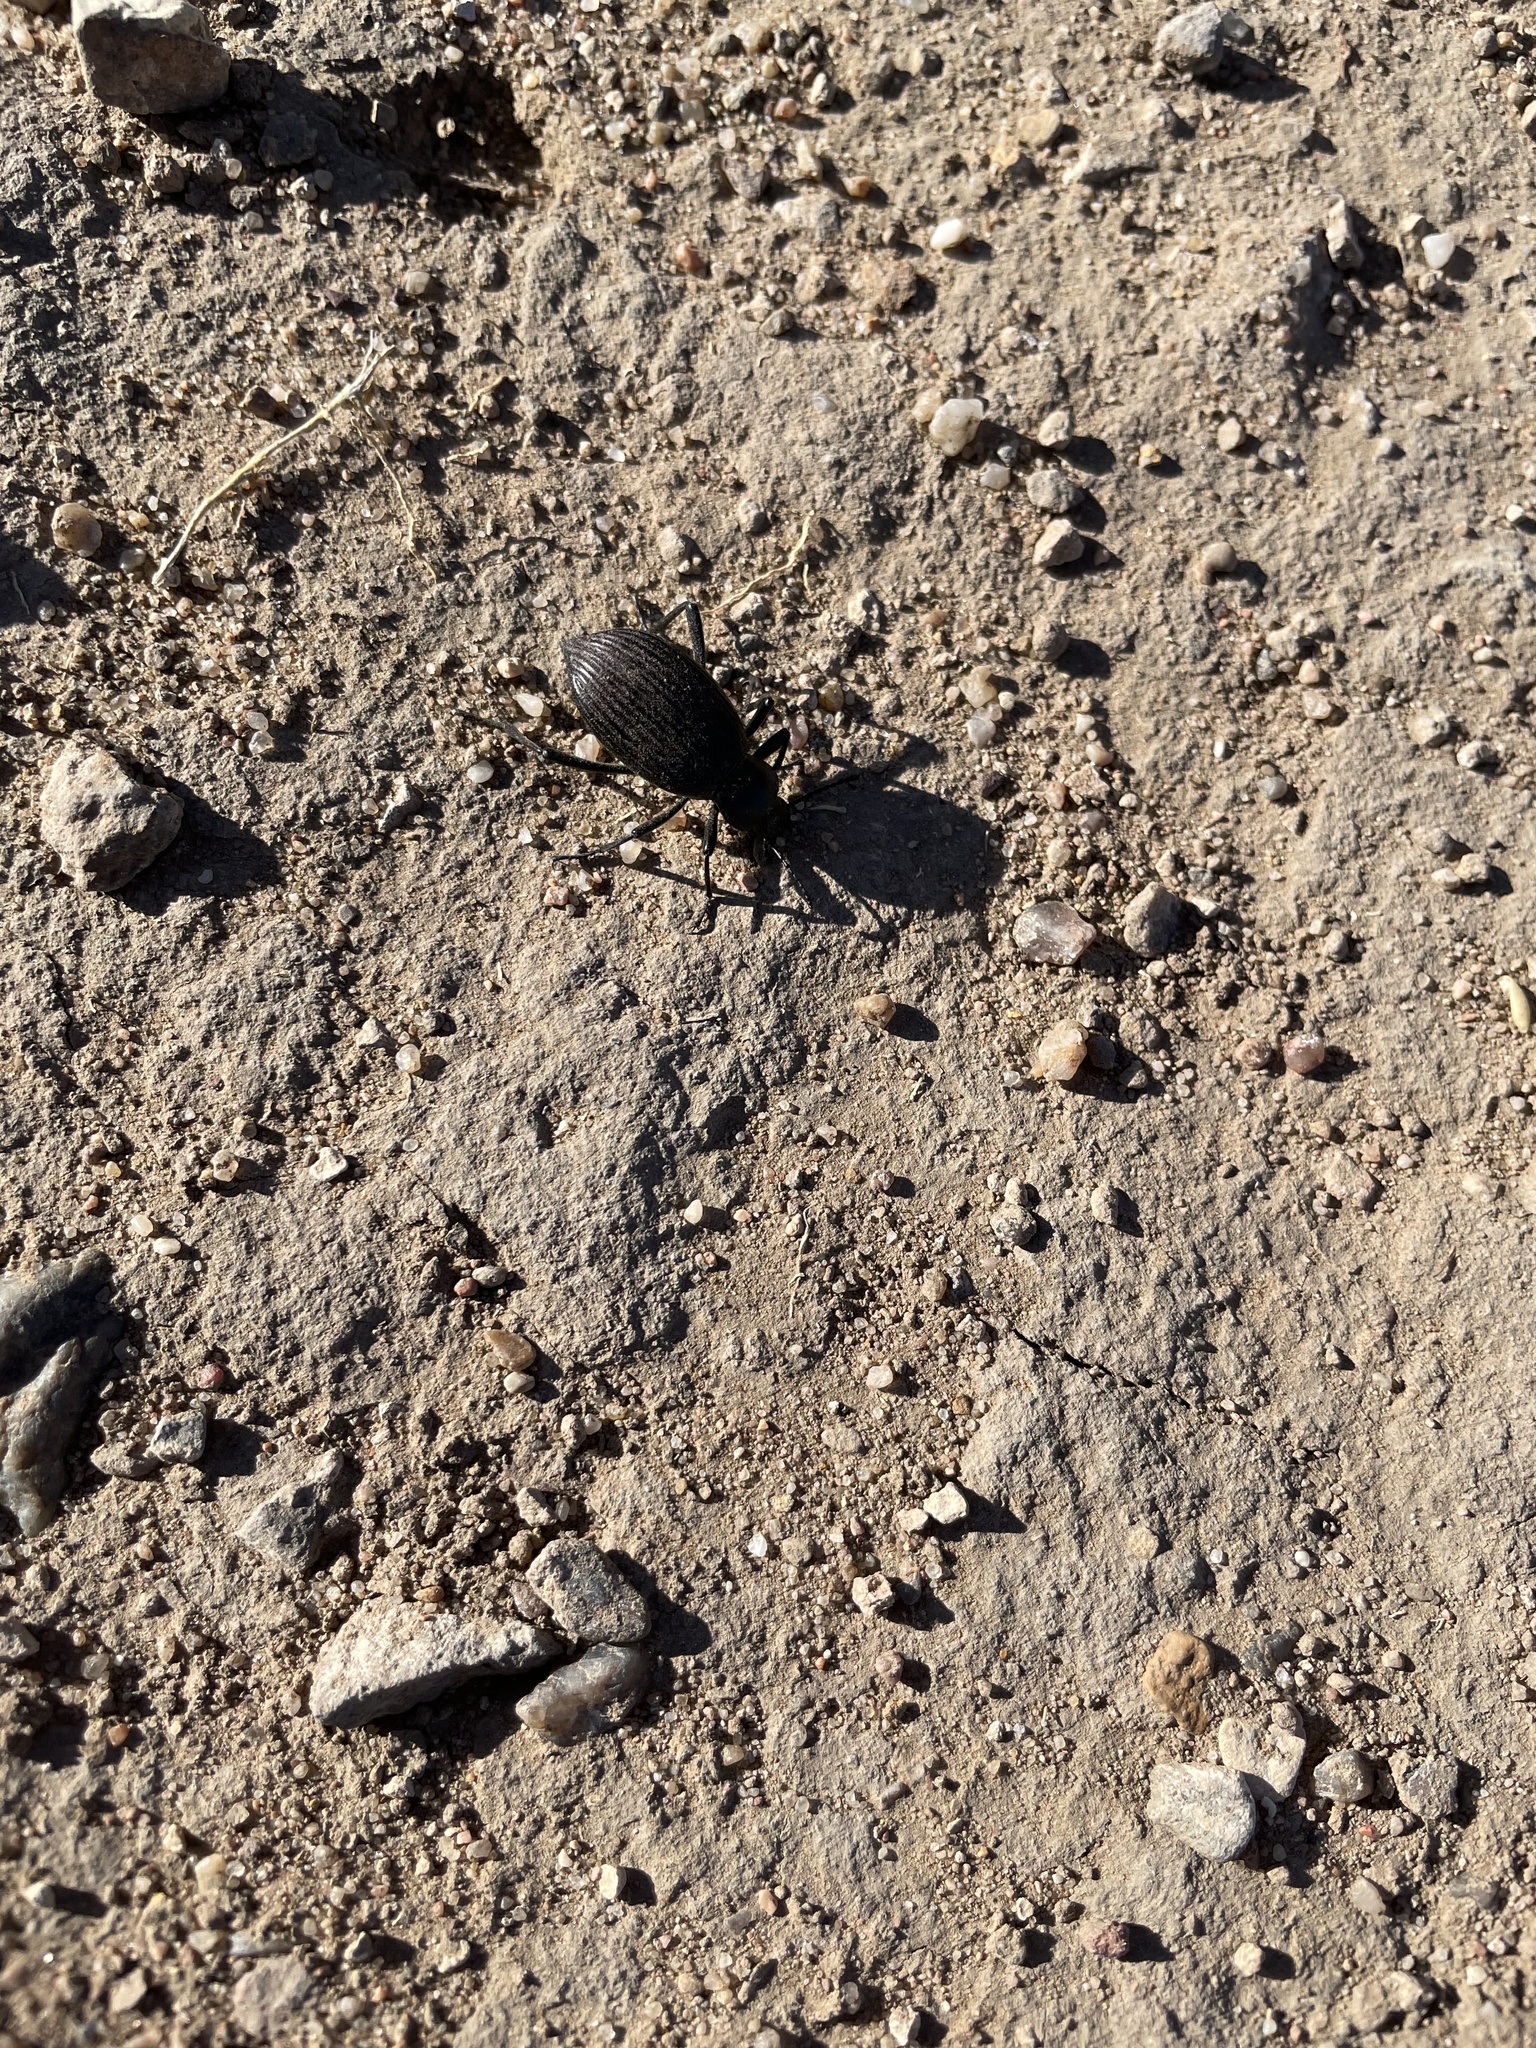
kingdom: Animalia
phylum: Arthropoda
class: Insecta
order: Coleoptera
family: Tenebrionidae
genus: Eleodes
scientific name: Eleodes hispilabris
